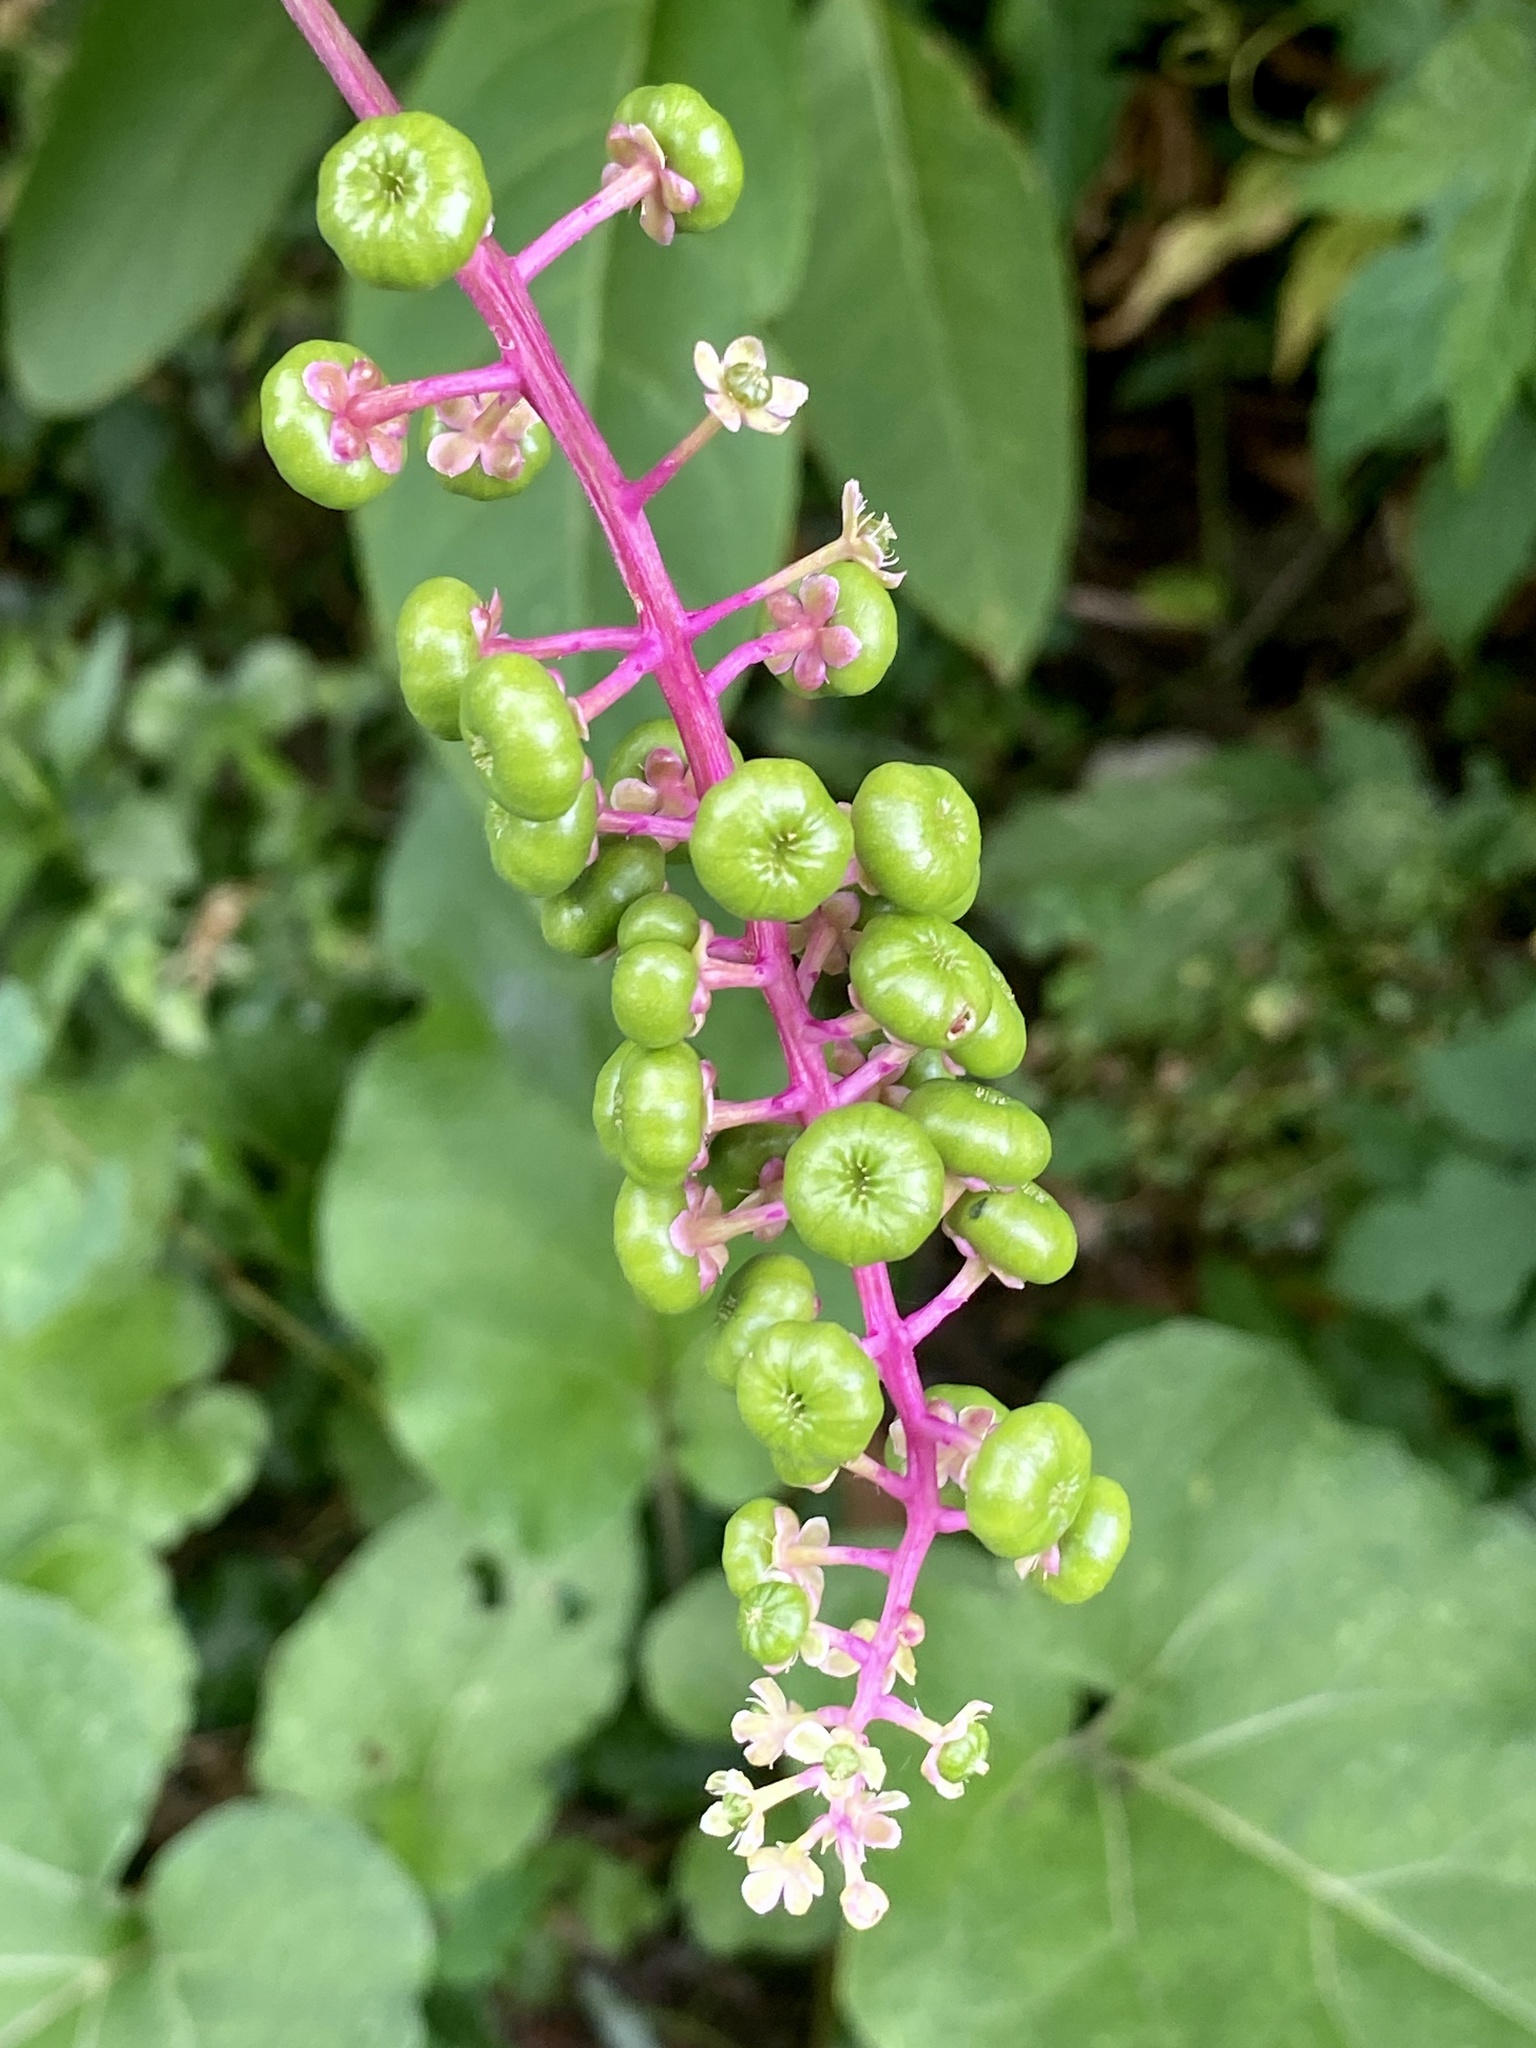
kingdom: Plantae
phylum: Tracheophyta
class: Magnoliopsida
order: Caryophyllales
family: Phytolaccaceae
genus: Phytolacca
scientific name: Phytolacca americana
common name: American pokeweed
